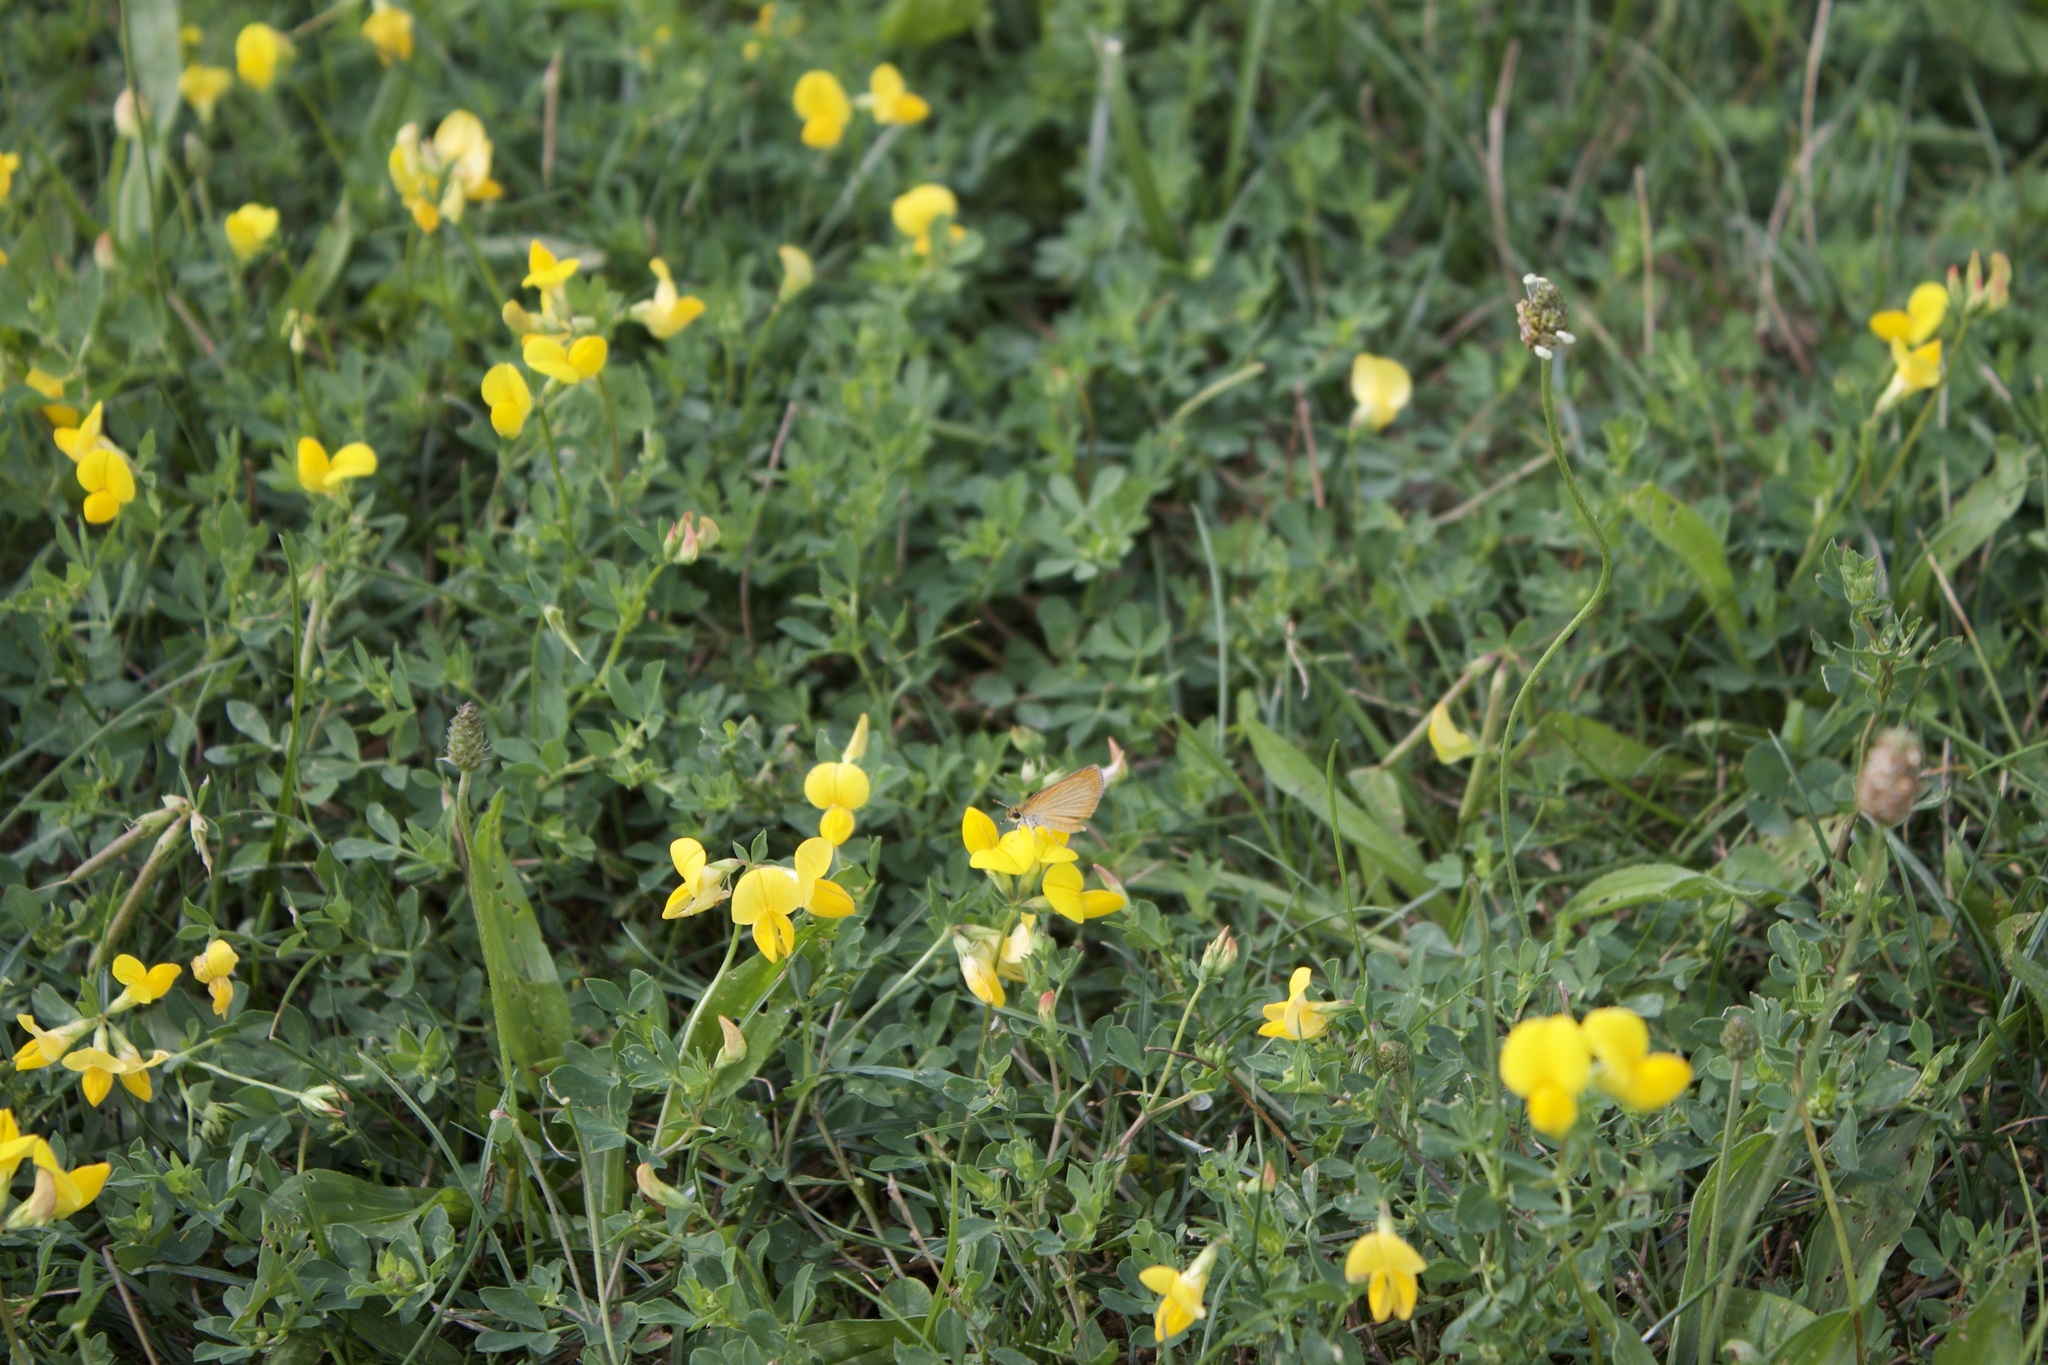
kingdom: Animalia
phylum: Arthropoda
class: Insecta
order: Lepidoptera
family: Hesperiidae
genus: Ancyloxypha
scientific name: Ancyloxypha numitor
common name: Least skipper
